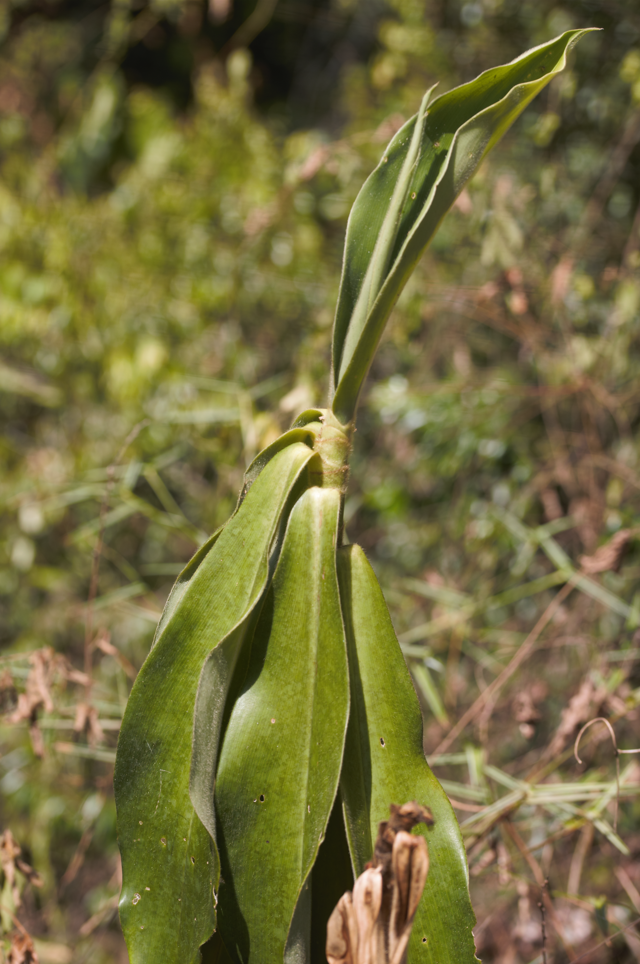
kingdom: Plantae
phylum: Tracheophyta
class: Liliopsida
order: Zingiberales
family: Costaceae
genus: Costus
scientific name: Costus spiralis
